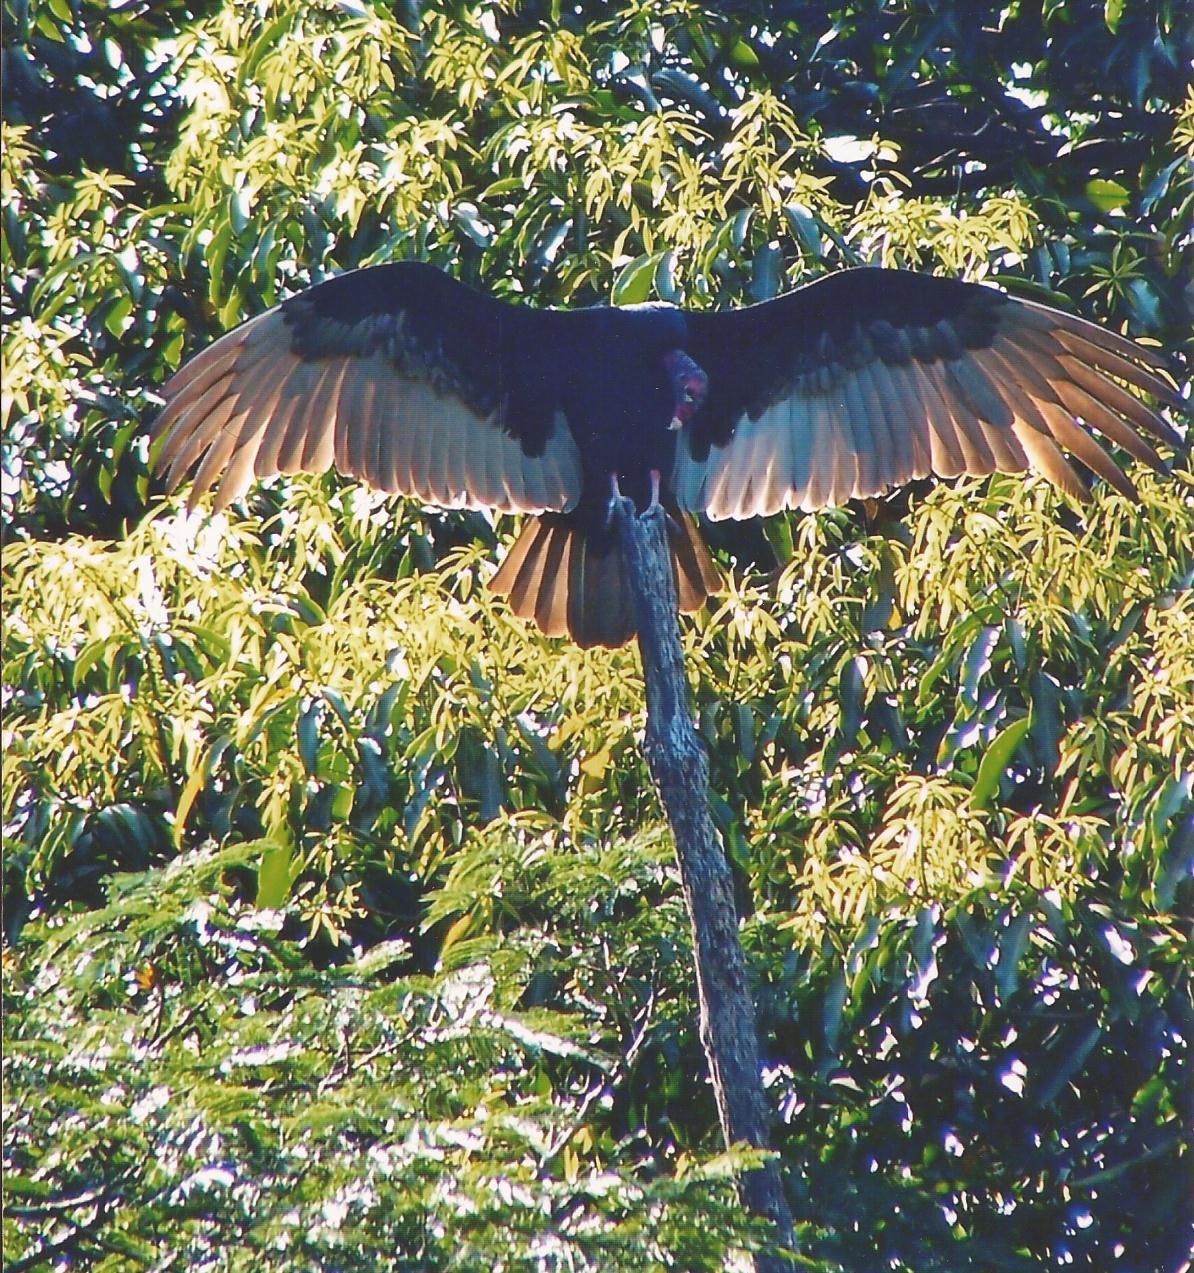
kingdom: Animalia
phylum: Chordata
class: Aves
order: Accipitriformes
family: Cathartidae
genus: Cathartes
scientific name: Cathartes aura
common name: Turkey vulture
